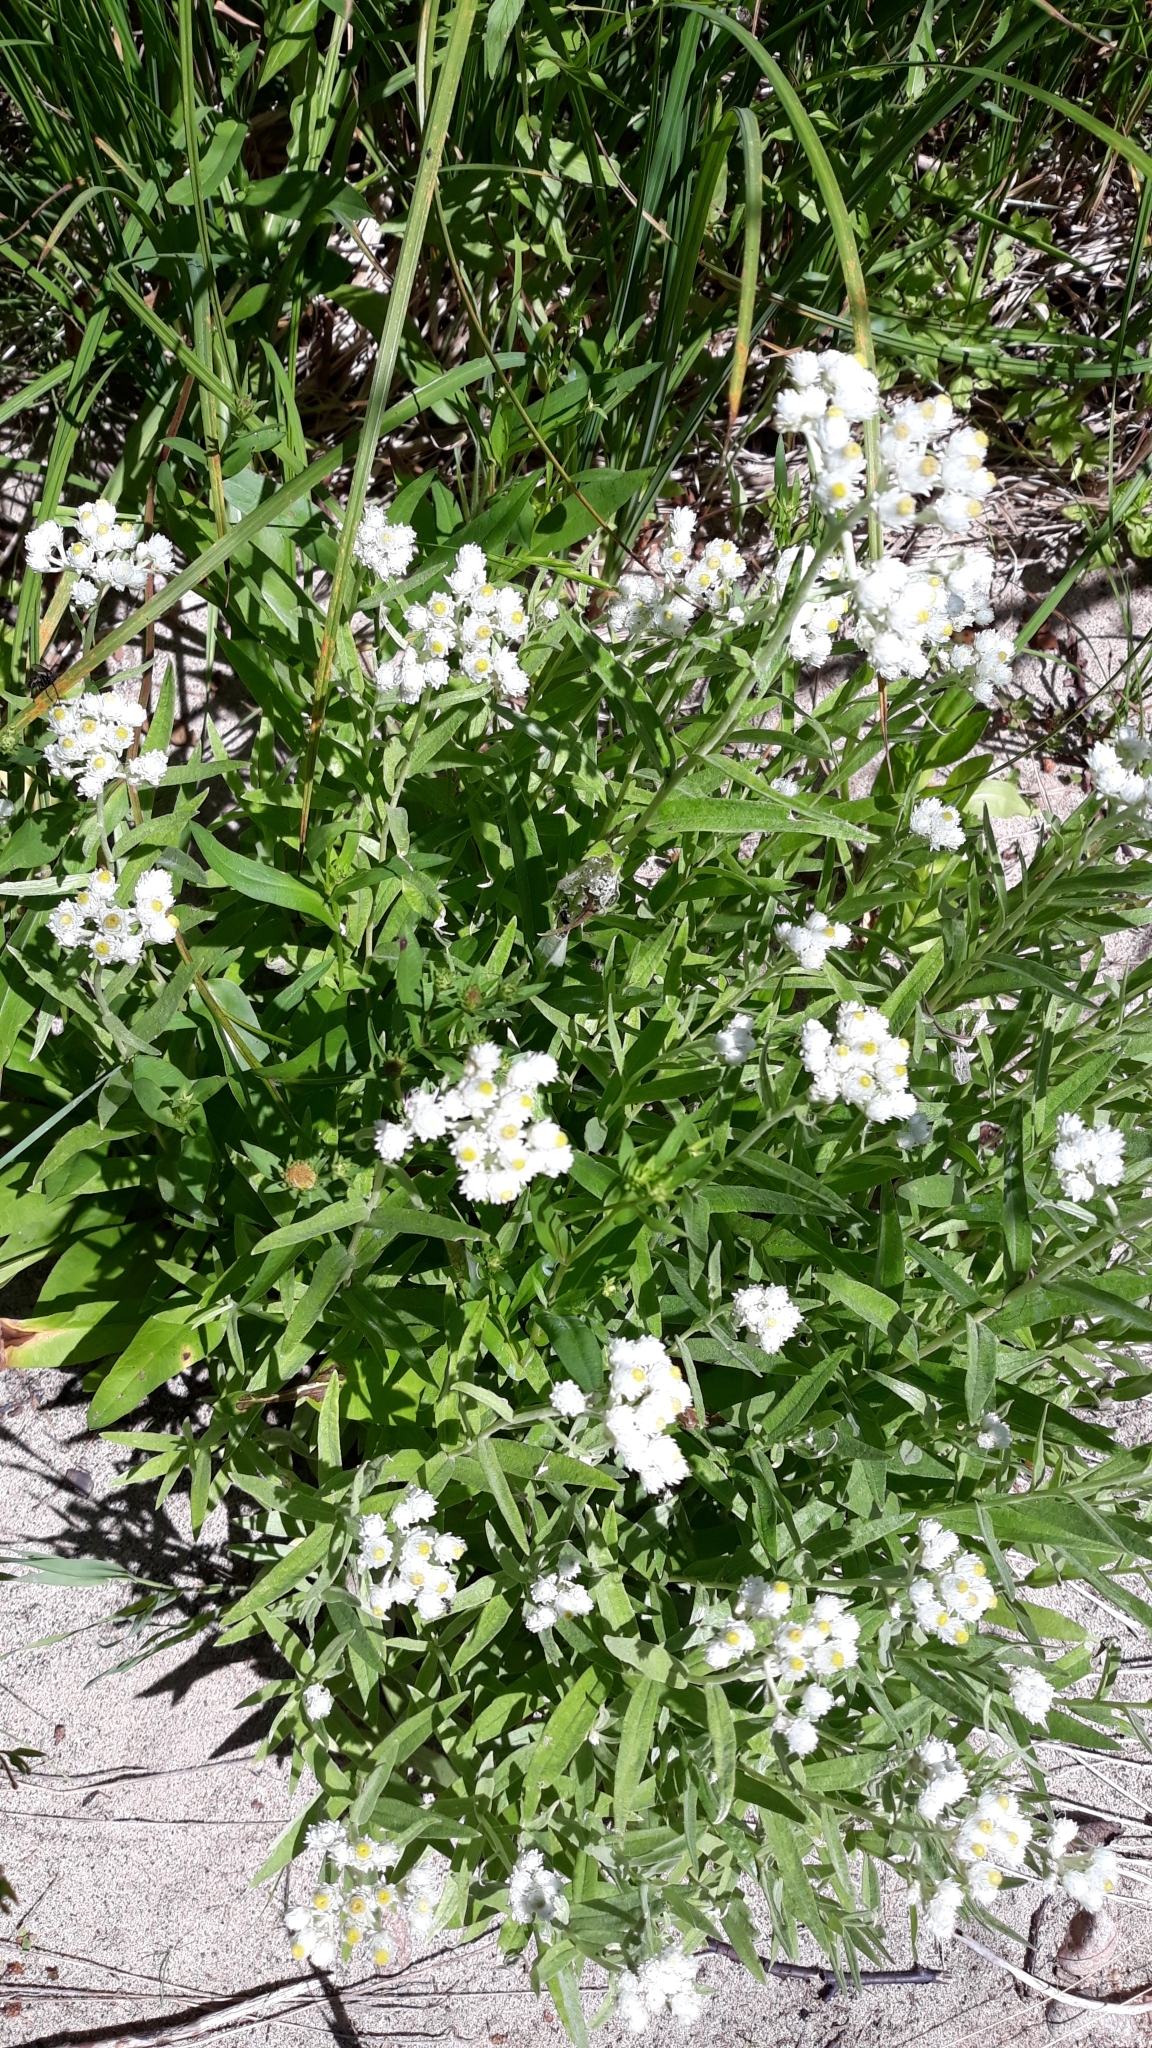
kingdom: Plantae
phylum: Tracheophyta
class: Magnoliopsida
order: Asterales
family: Asteraceae
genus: Anaphalis
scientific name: Anaphalis margaritacea
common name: Pearly everlasting
